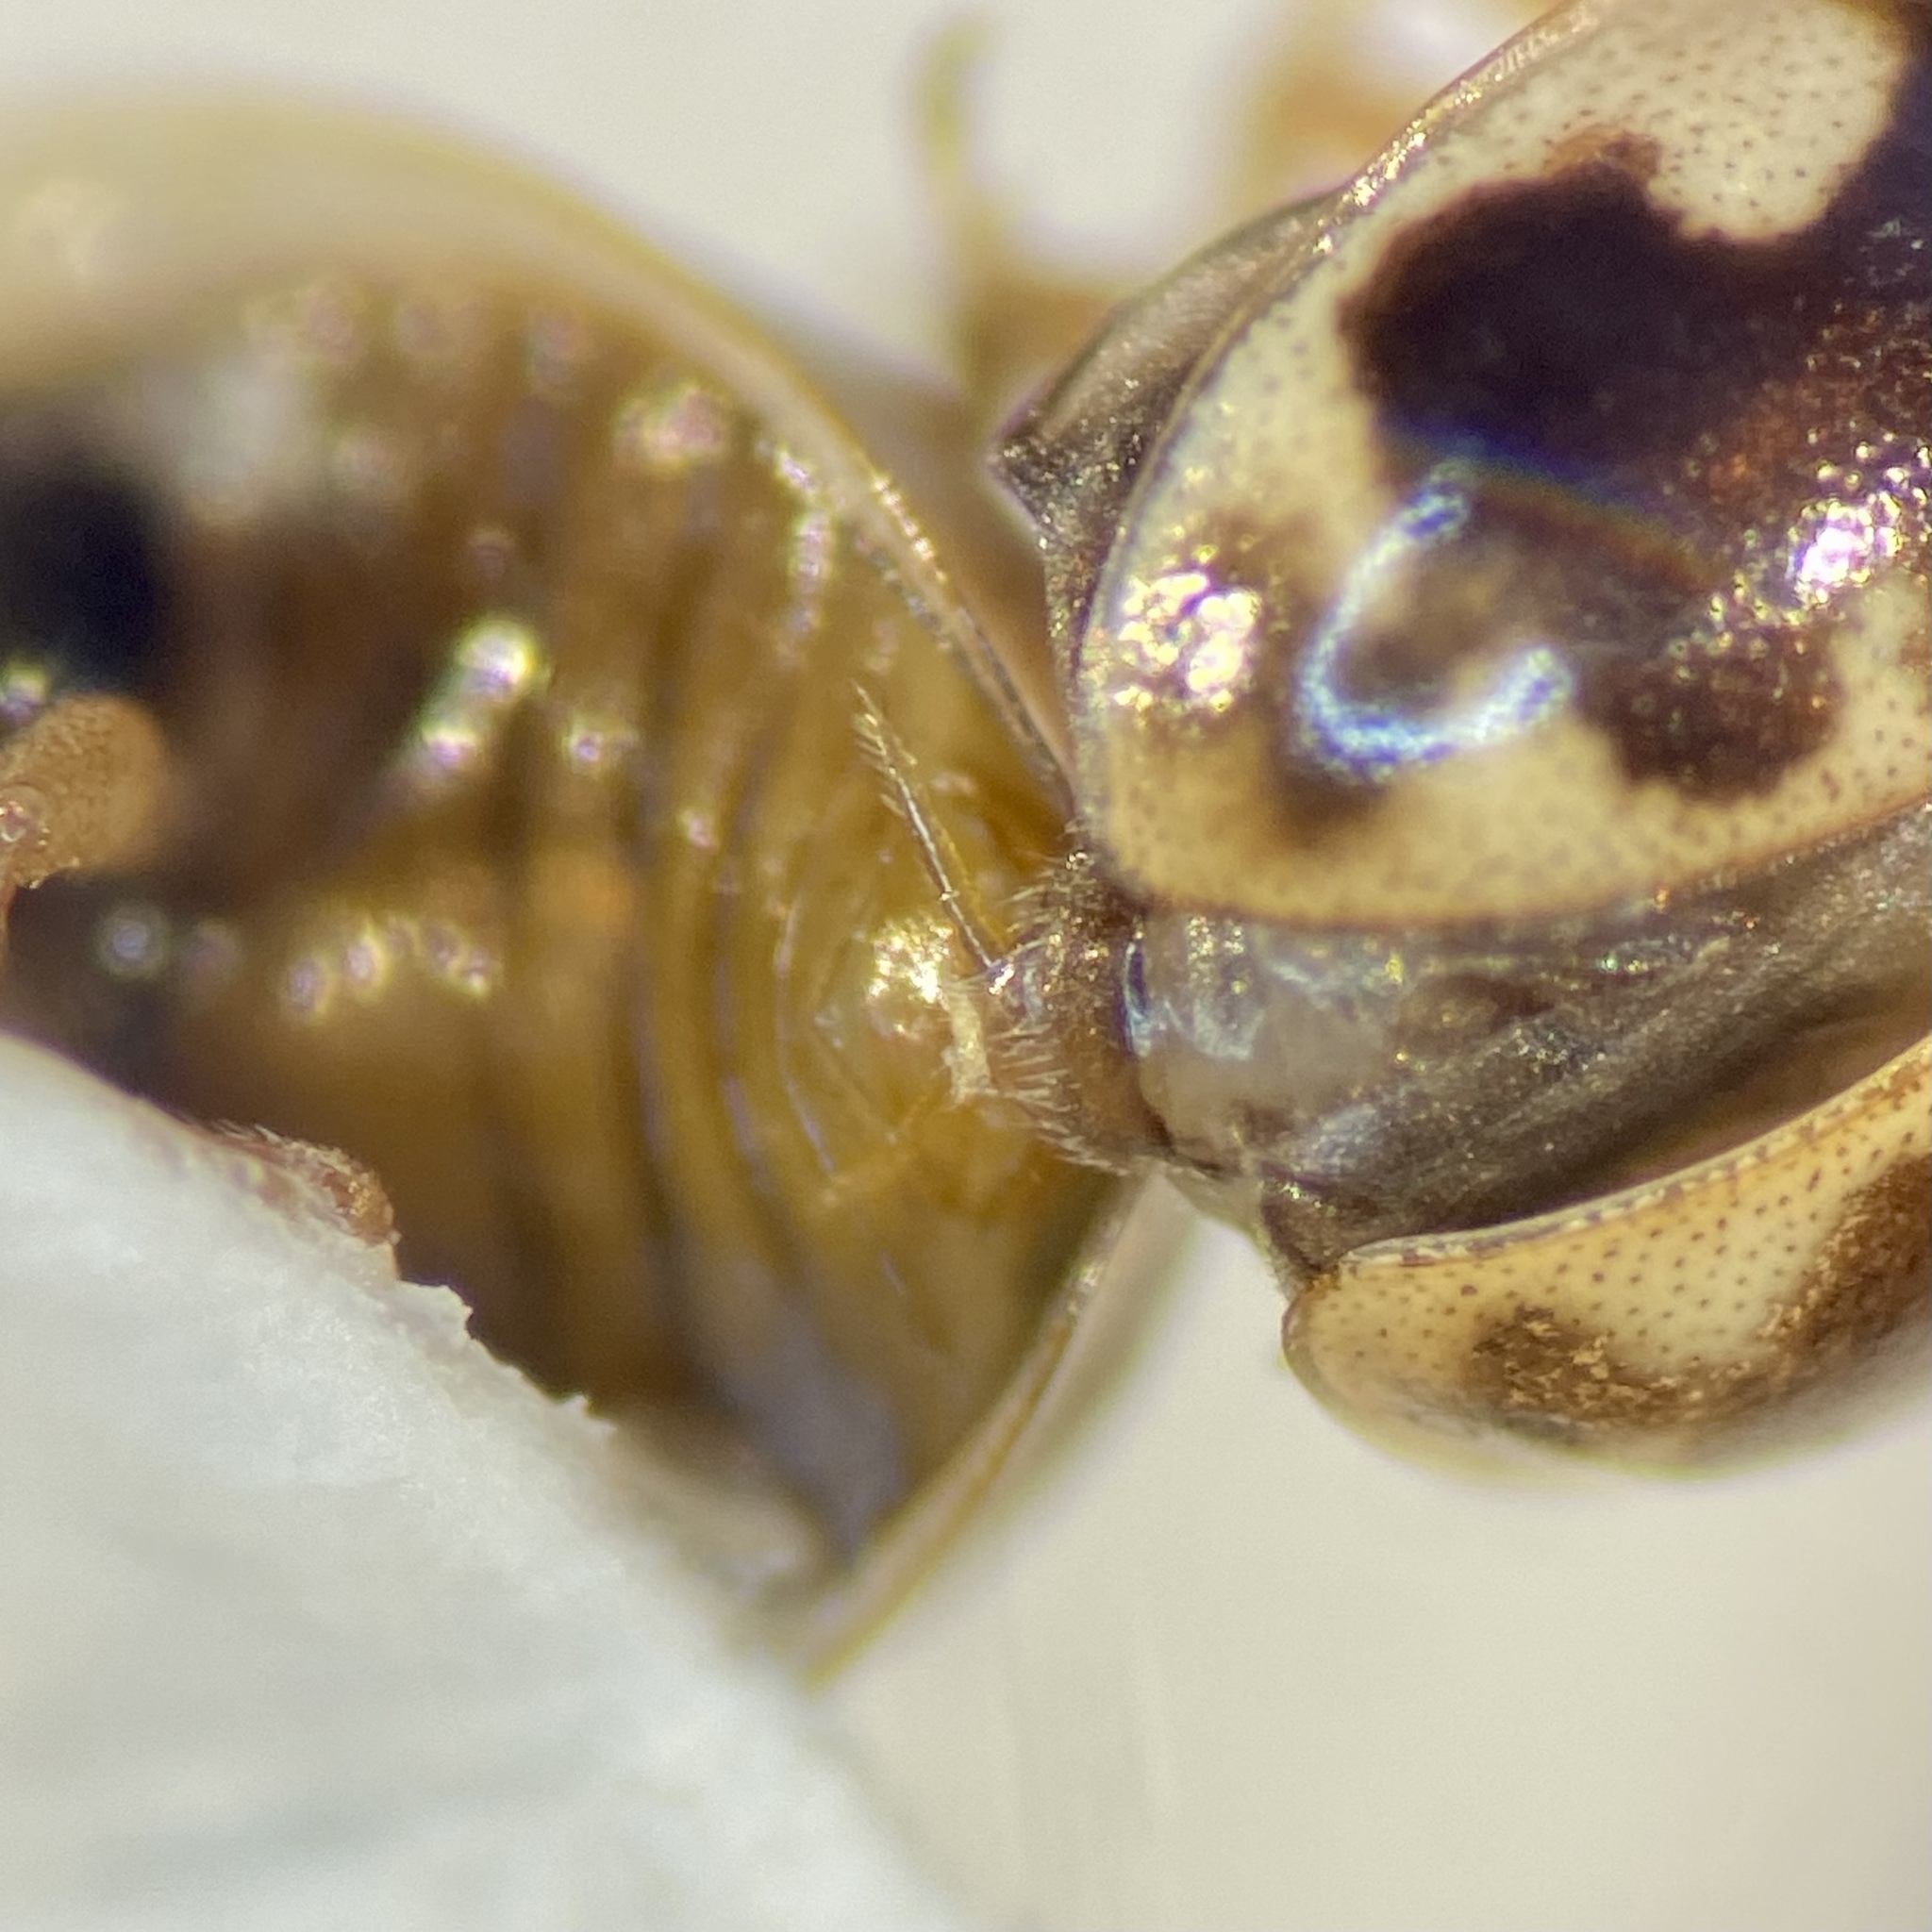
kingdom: Animalia
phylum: Arthropoda
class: Insecta
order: Coleoptera
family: Coccinellidae
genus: Psyllobora
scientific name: Psyllobora renifer
